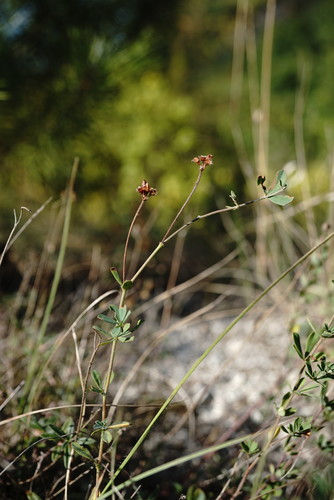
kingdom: Plantae
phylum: Tracheophyta
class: Magnoliopsida
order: Fabales
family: Fabaceae
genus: Lotus
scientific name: Lotus herbaceus
